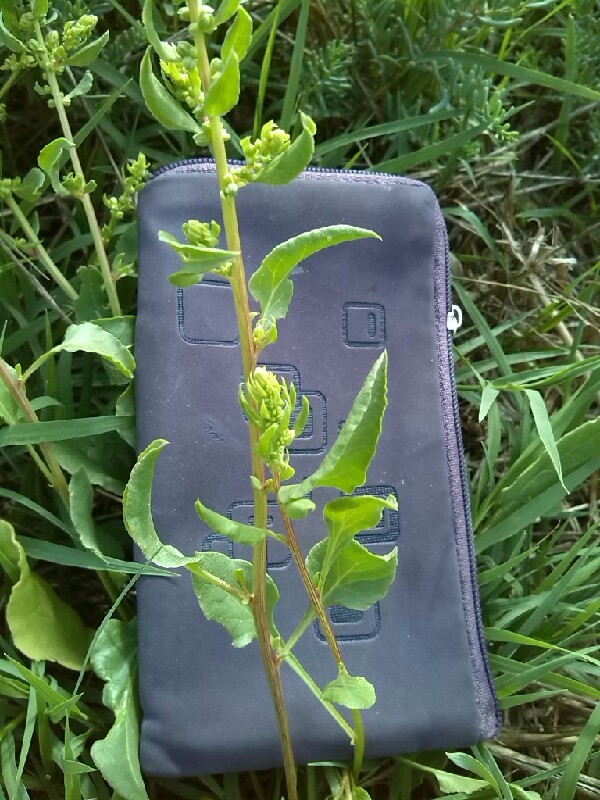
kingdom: Plantae
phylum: Tracheophyta
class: Magnoliopsida
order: Caryophyllales
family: Amaranthaceae
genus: Beta
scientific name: Beta vulgaris
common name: Beet
